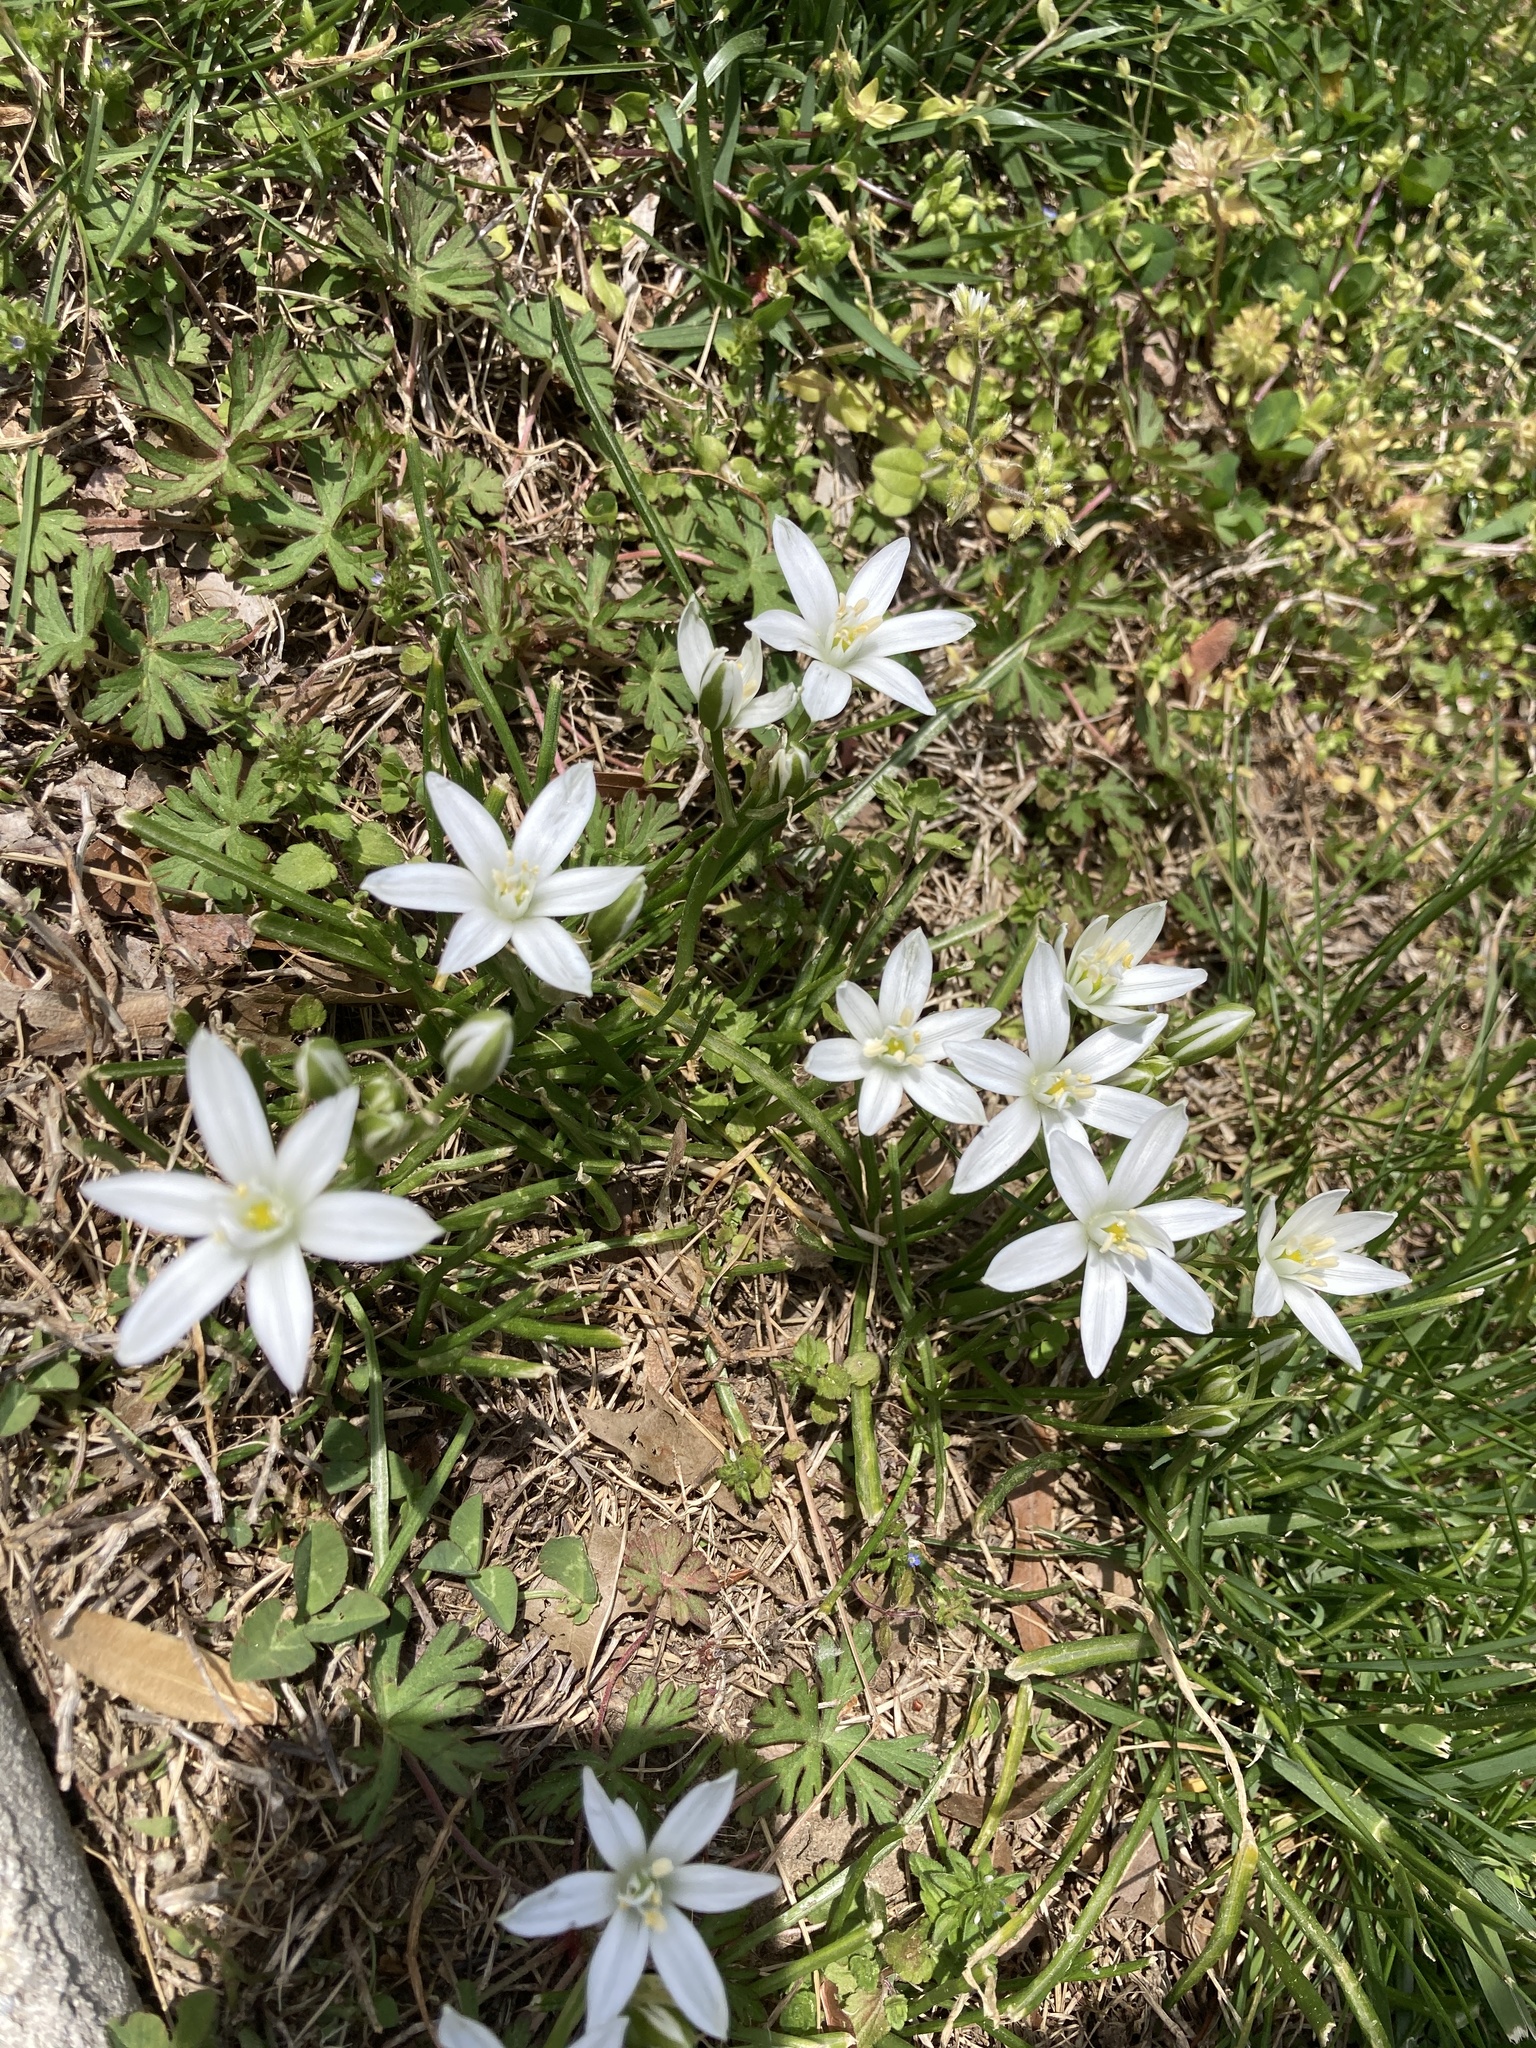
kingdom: Plantae
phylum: Tracheophyta
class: Liliopsida
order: Asparagales
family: Asparagaceae
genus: Ornithogalum
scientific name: Ornithogalum umbellatum
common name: Garden star-of-bethlehem
